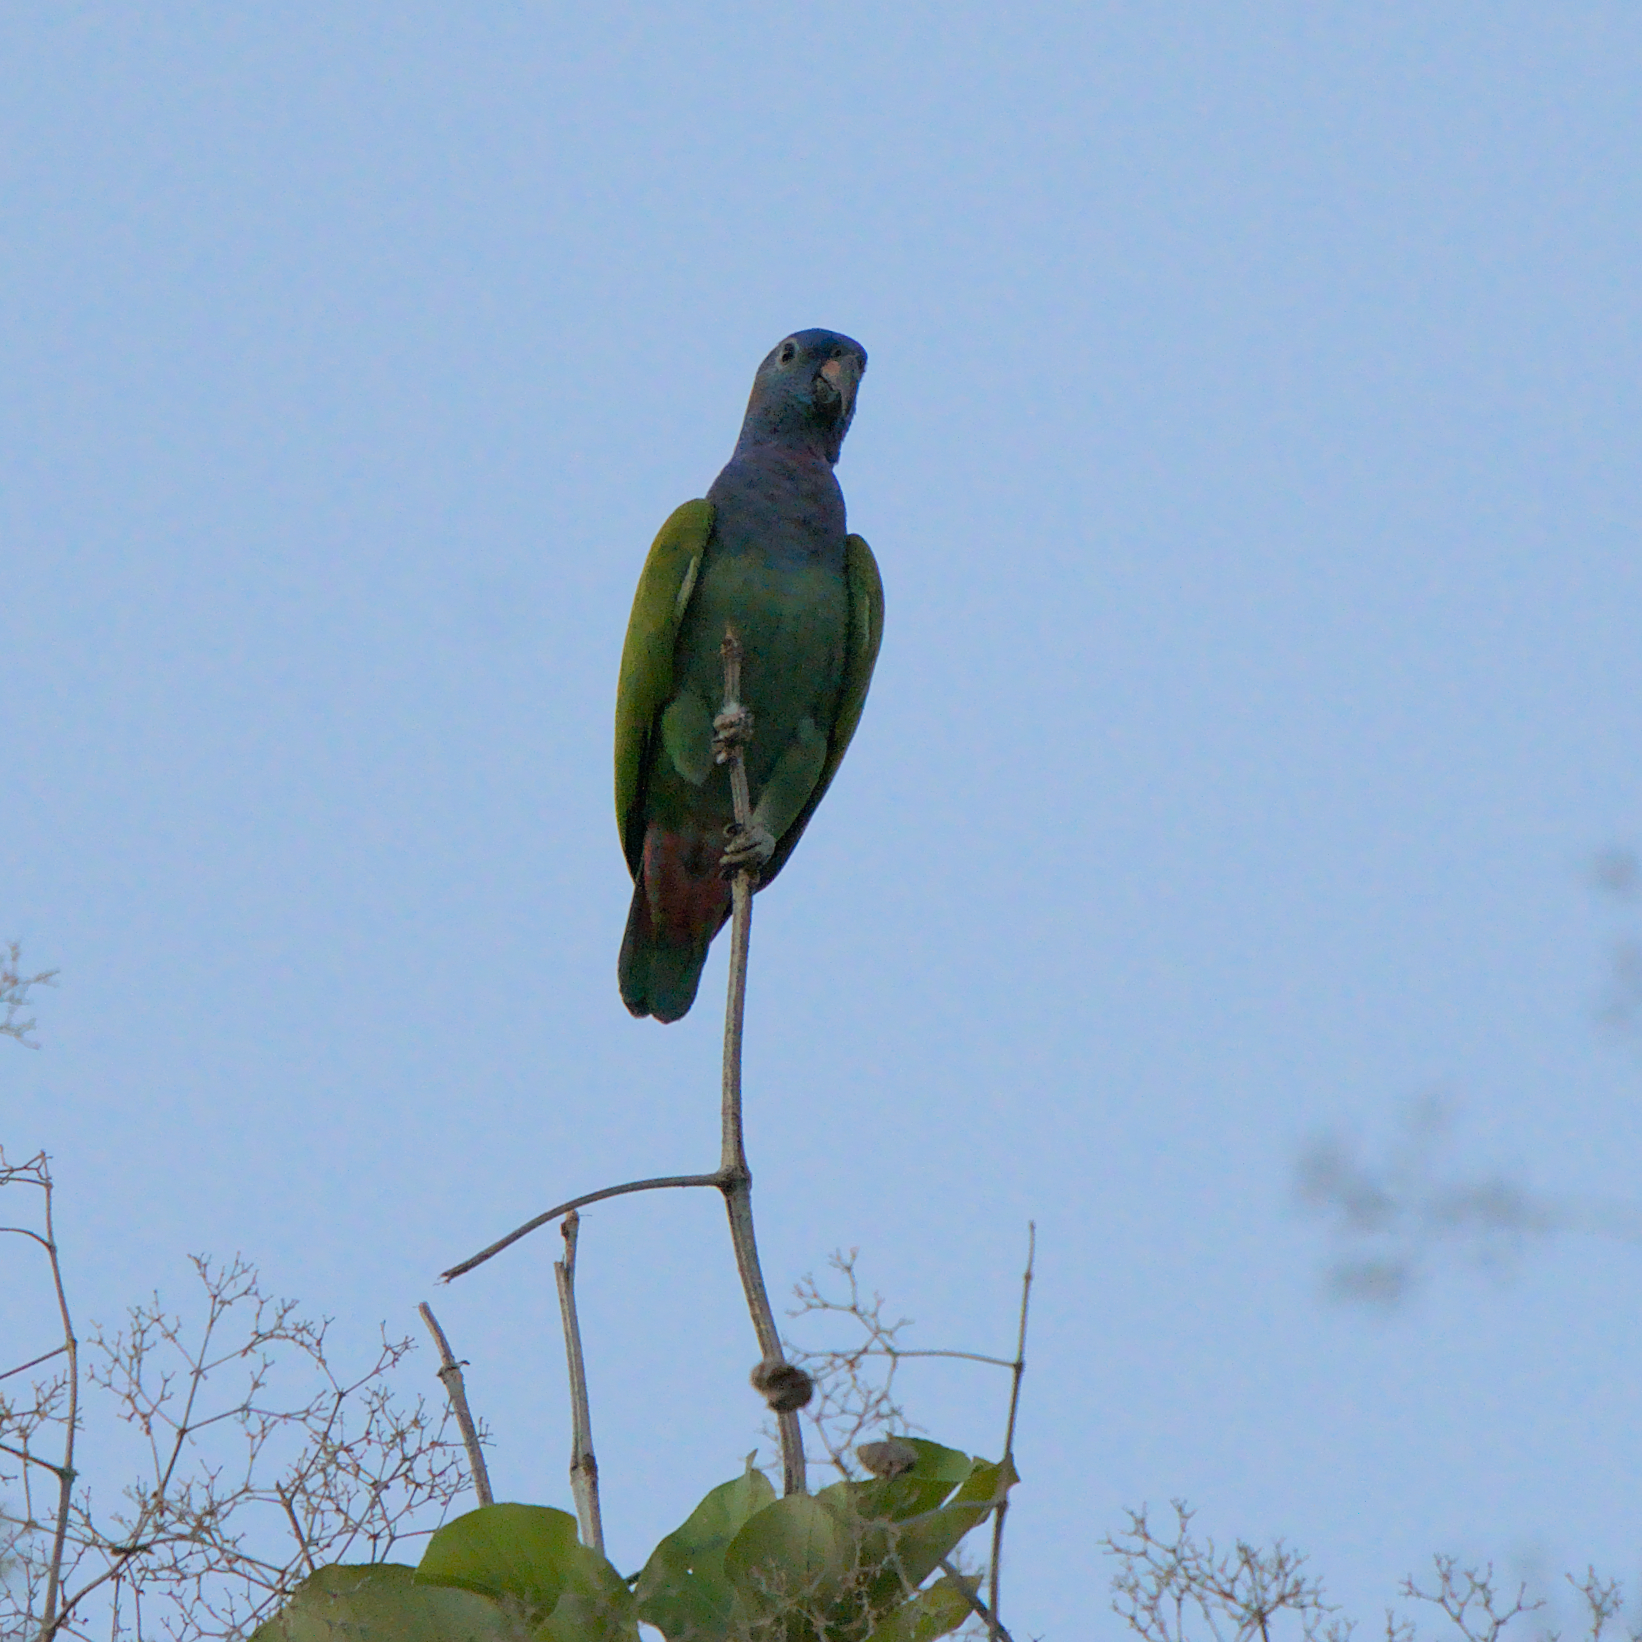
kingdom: Animalia
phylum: Chordata
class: Aves
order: Psittaciformes
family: Psittacidae
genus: Pionus
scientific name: Pionus menstruus
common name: Blue-headed parrot
